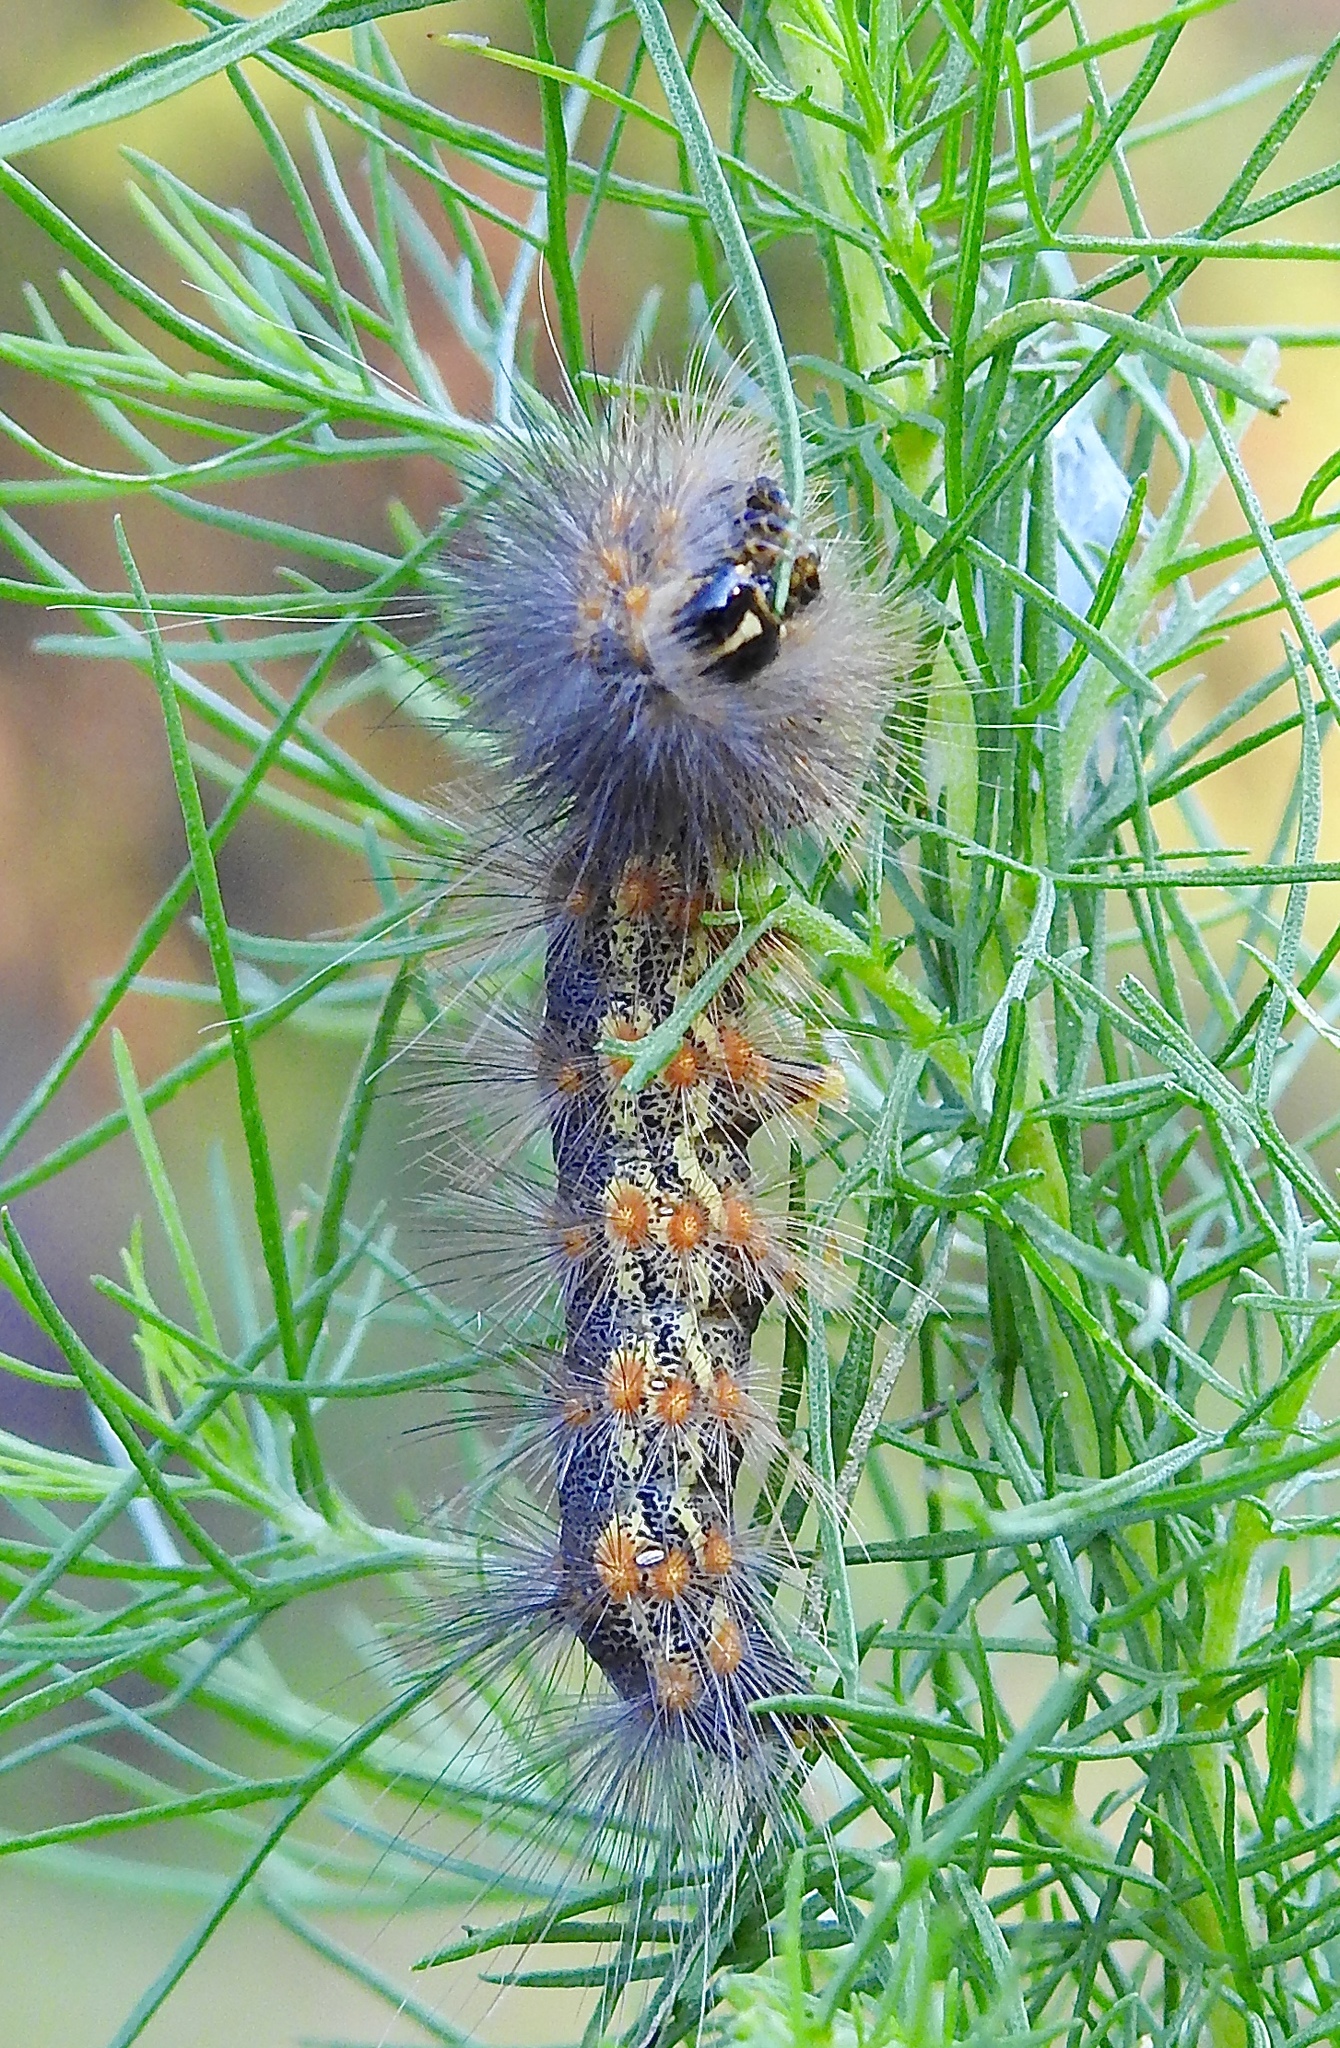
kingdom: Animalia
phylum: Arthropoda
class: Insecta
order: Lepidoptera
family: Erebidae
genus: Estigmene
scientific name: Estigmene acrea
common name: Salt marsh moth
